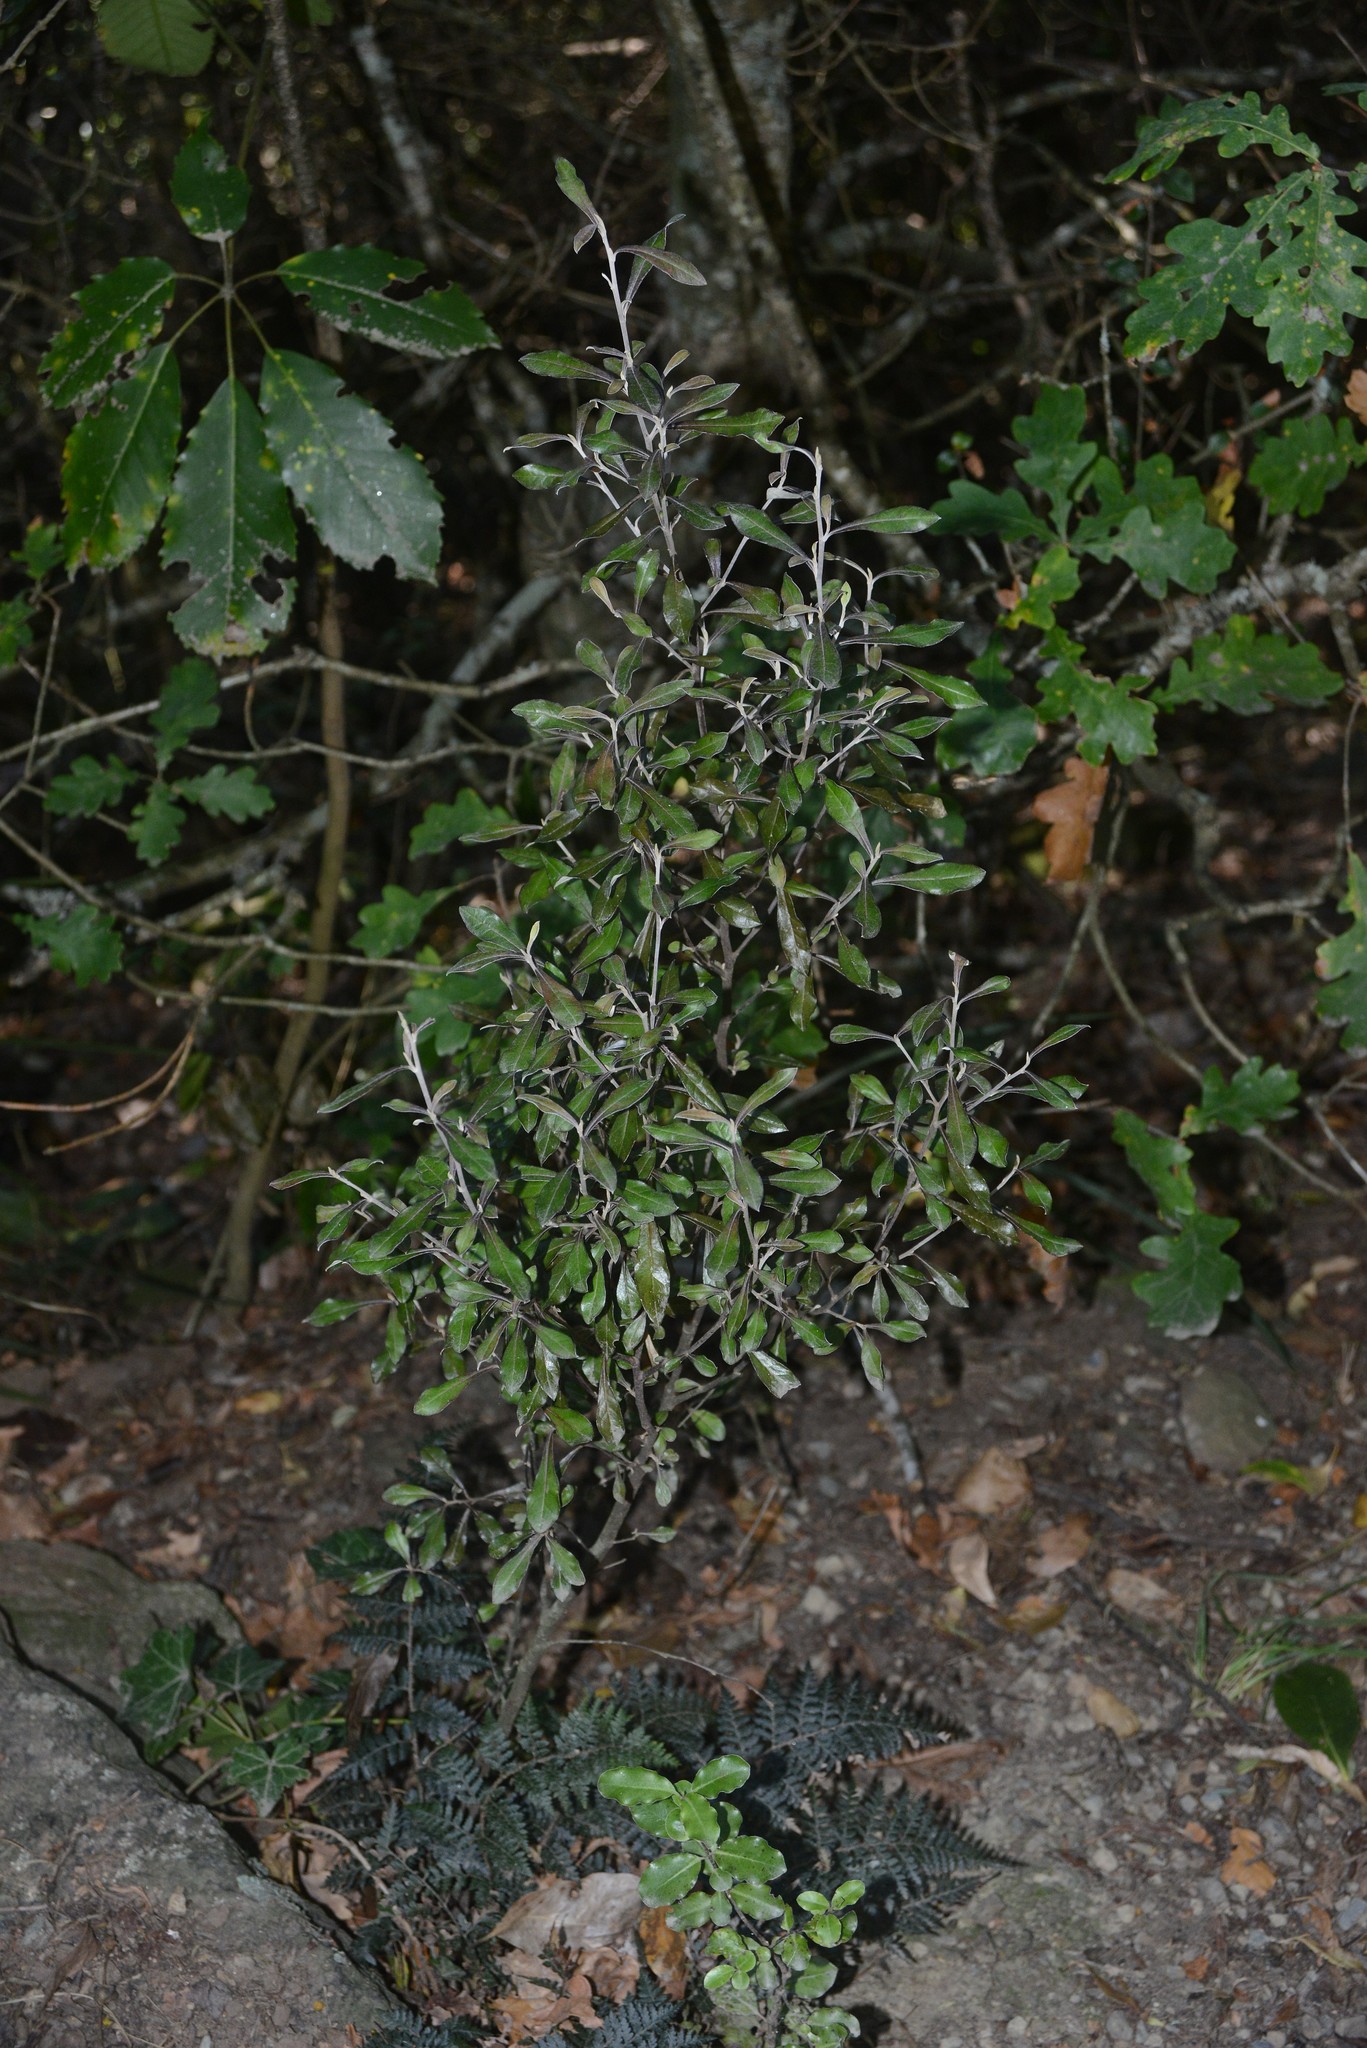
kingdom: Plantae
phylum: Tracheophyta
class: Magnoliopsida
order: Asterales
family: Argophyllaceae
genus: Corokia
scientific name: Corokia virgata
